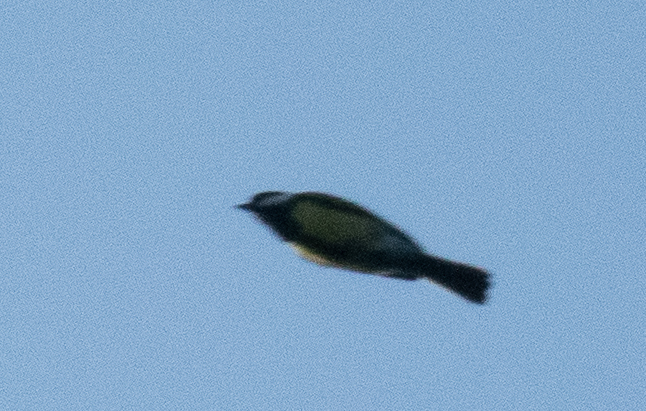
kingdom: Animalia
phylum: Chordata
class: Aves
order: Passeriformes
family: Paridae
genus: Parus
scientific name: Parus major
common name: Great tit
